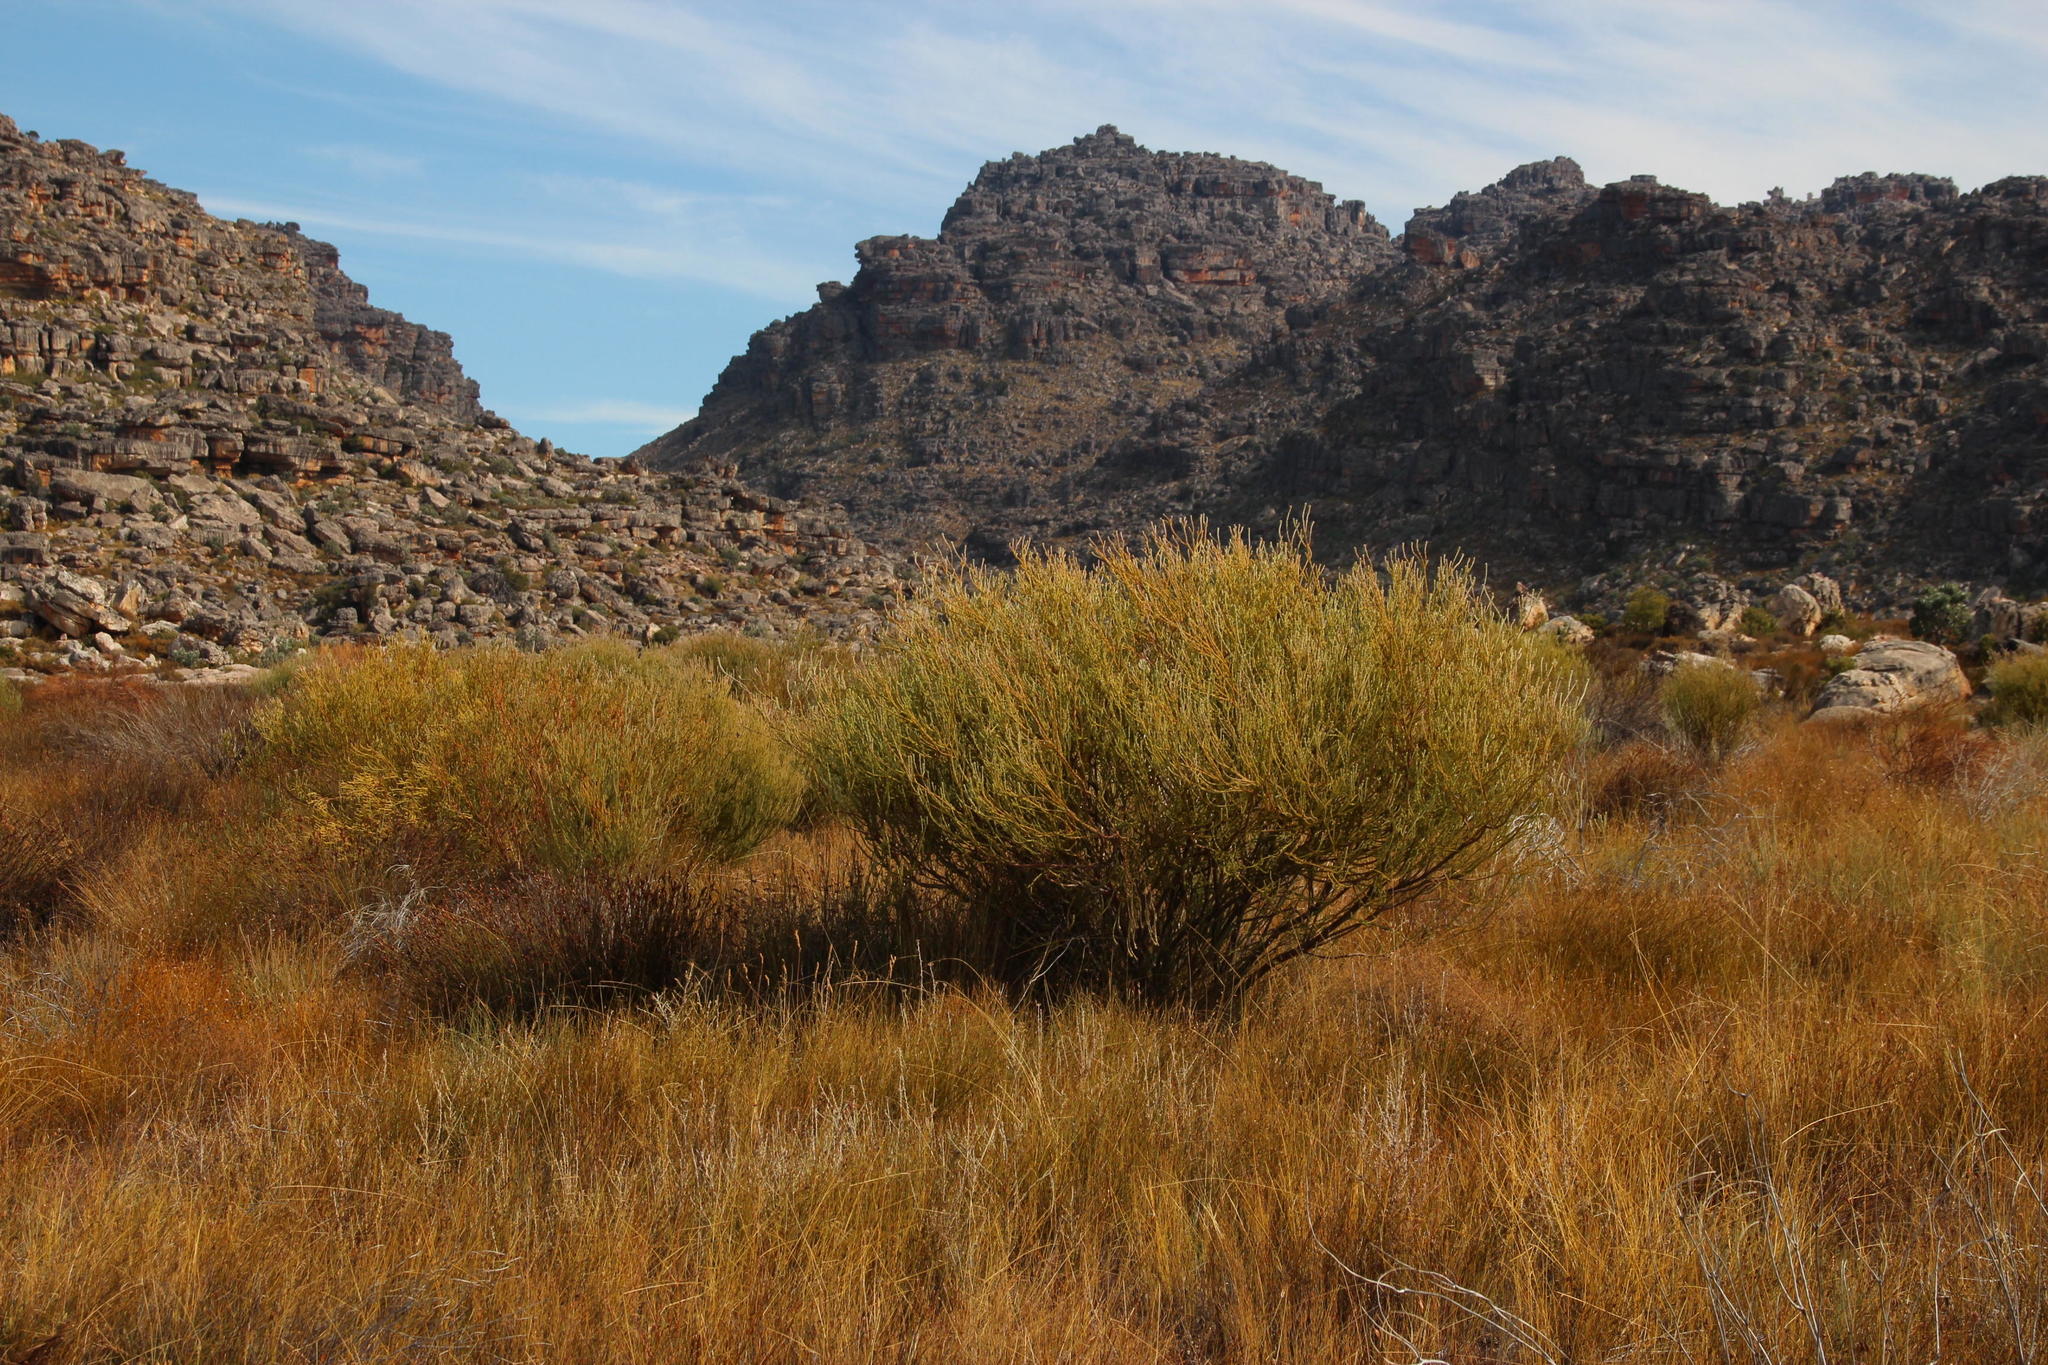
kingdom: Plantae
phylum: Tracheophyta
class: Magnoliopsida
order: Proteales
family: Proteaceae
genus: Leucadendron
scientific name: Leucadendron dubium
